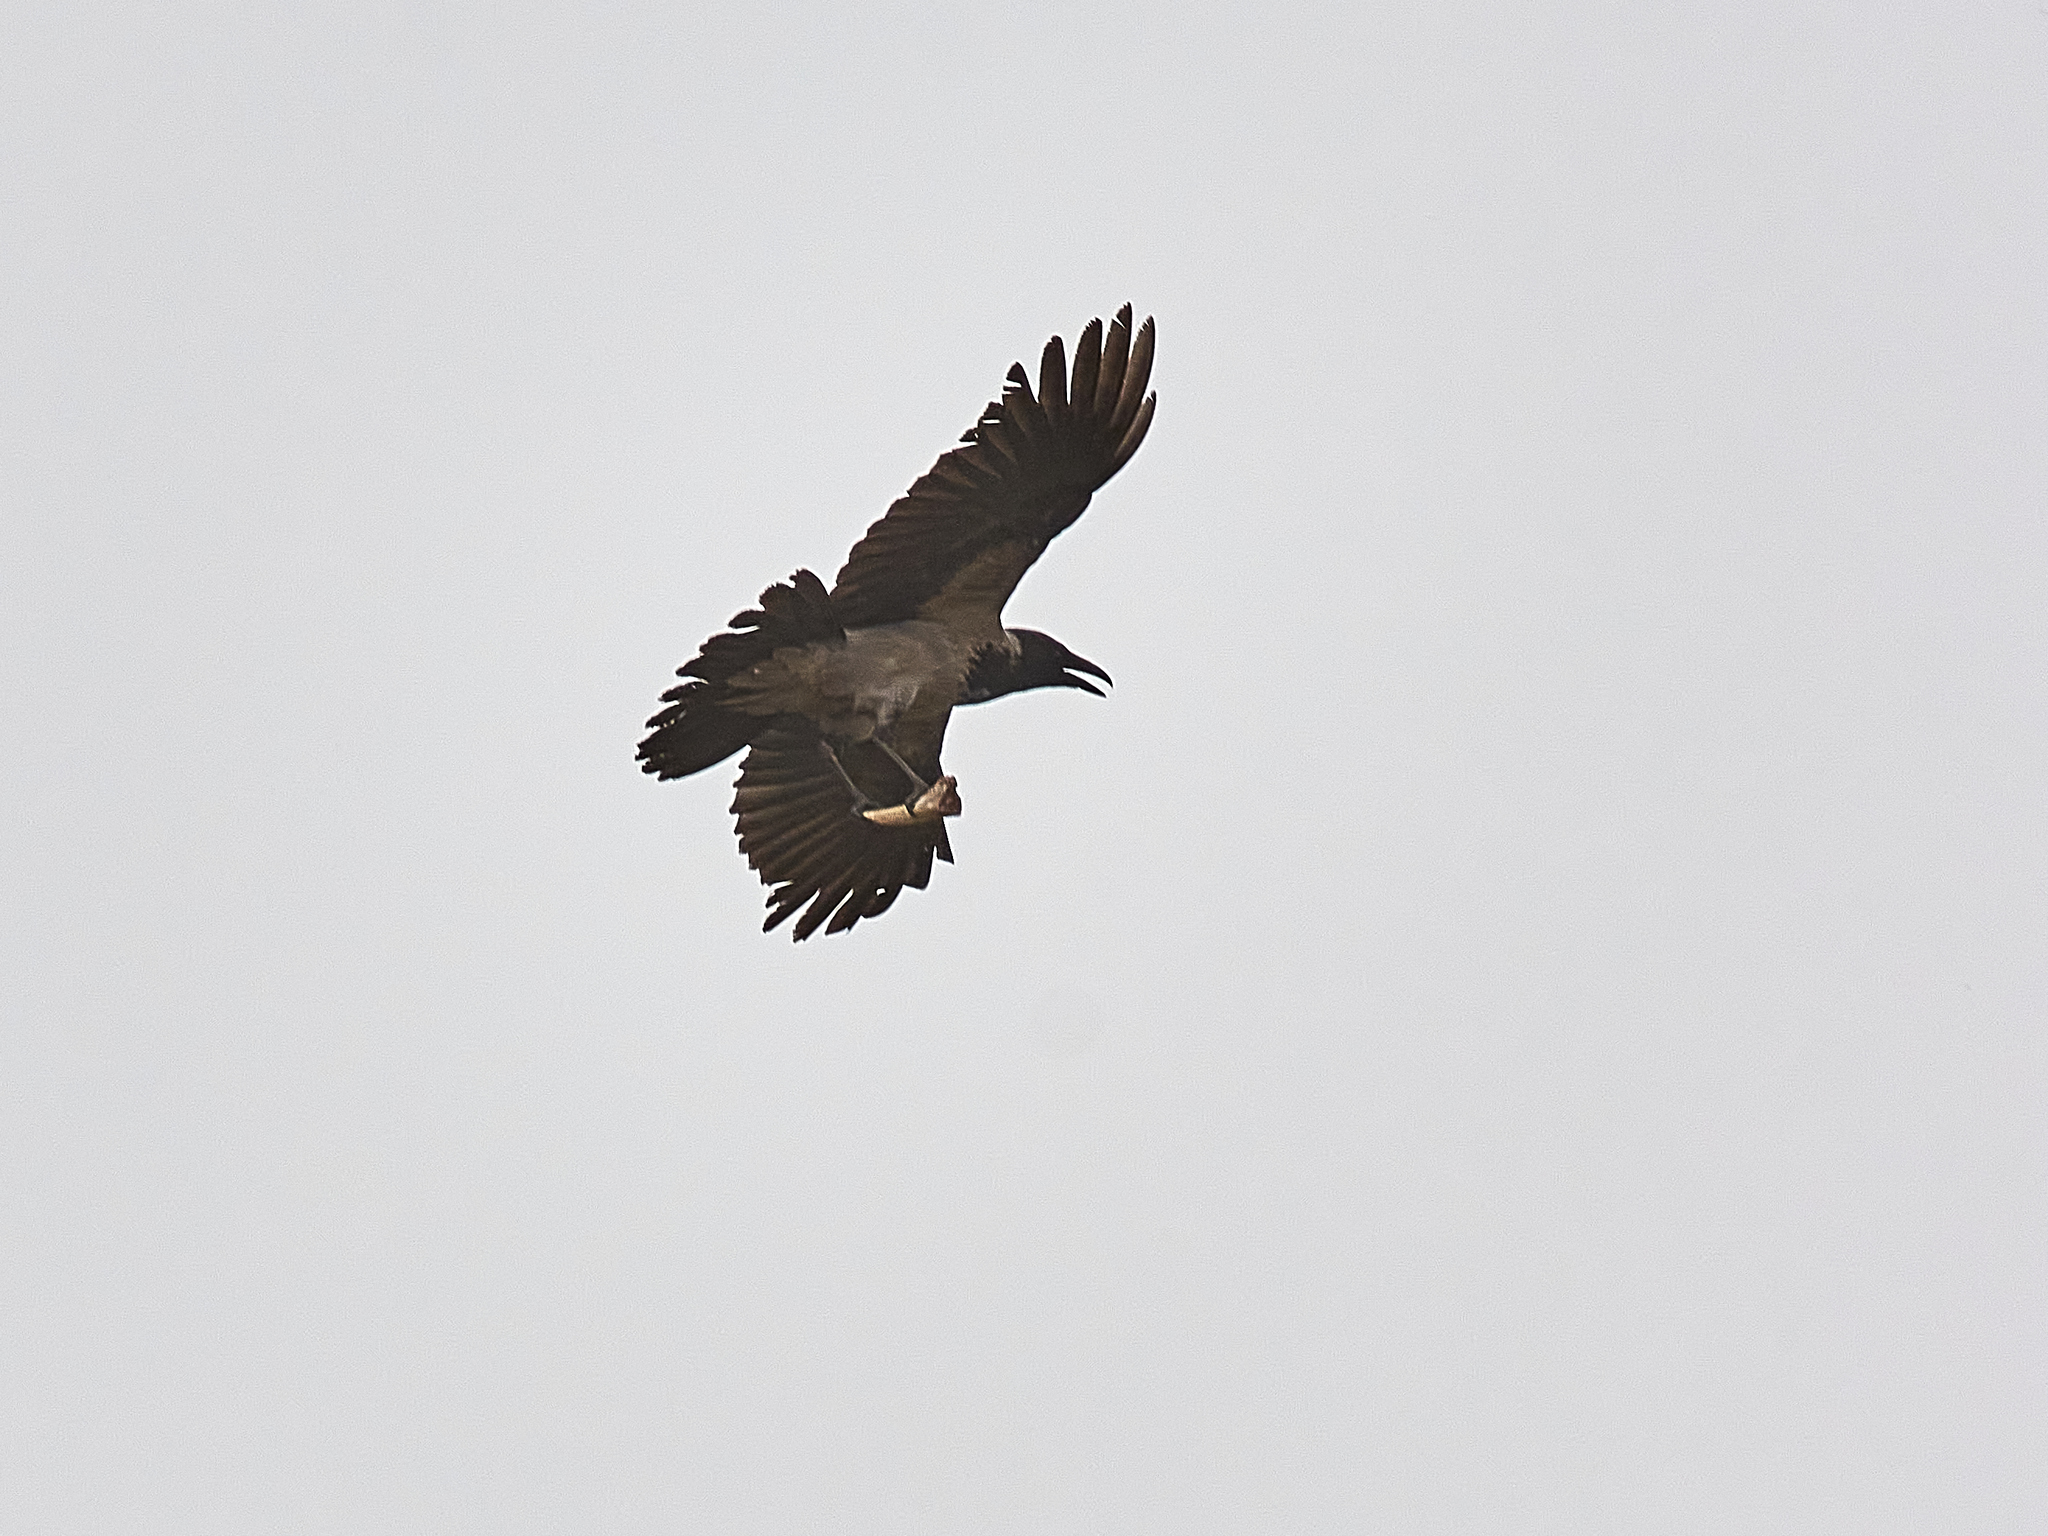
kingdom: Animalia
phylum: Chordata
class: Aves
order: Passeriformes
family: Corvidae
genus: Corvus
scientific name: Corvus cornix
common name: Hooded crow
